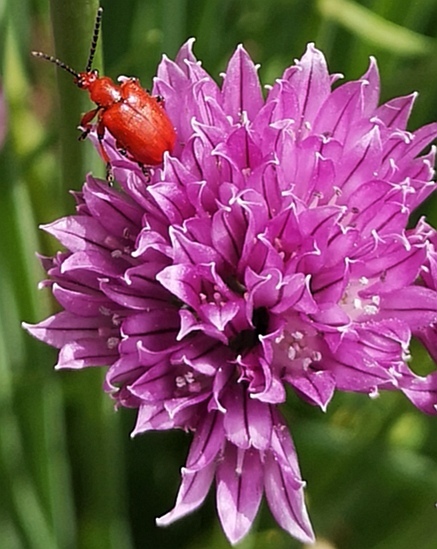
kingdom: Animalia
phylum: Arthropoda
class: Insecta
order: Coleoptera
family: Chrysomelidae
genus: Lilioceris
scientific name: Lilioceris merdigera
